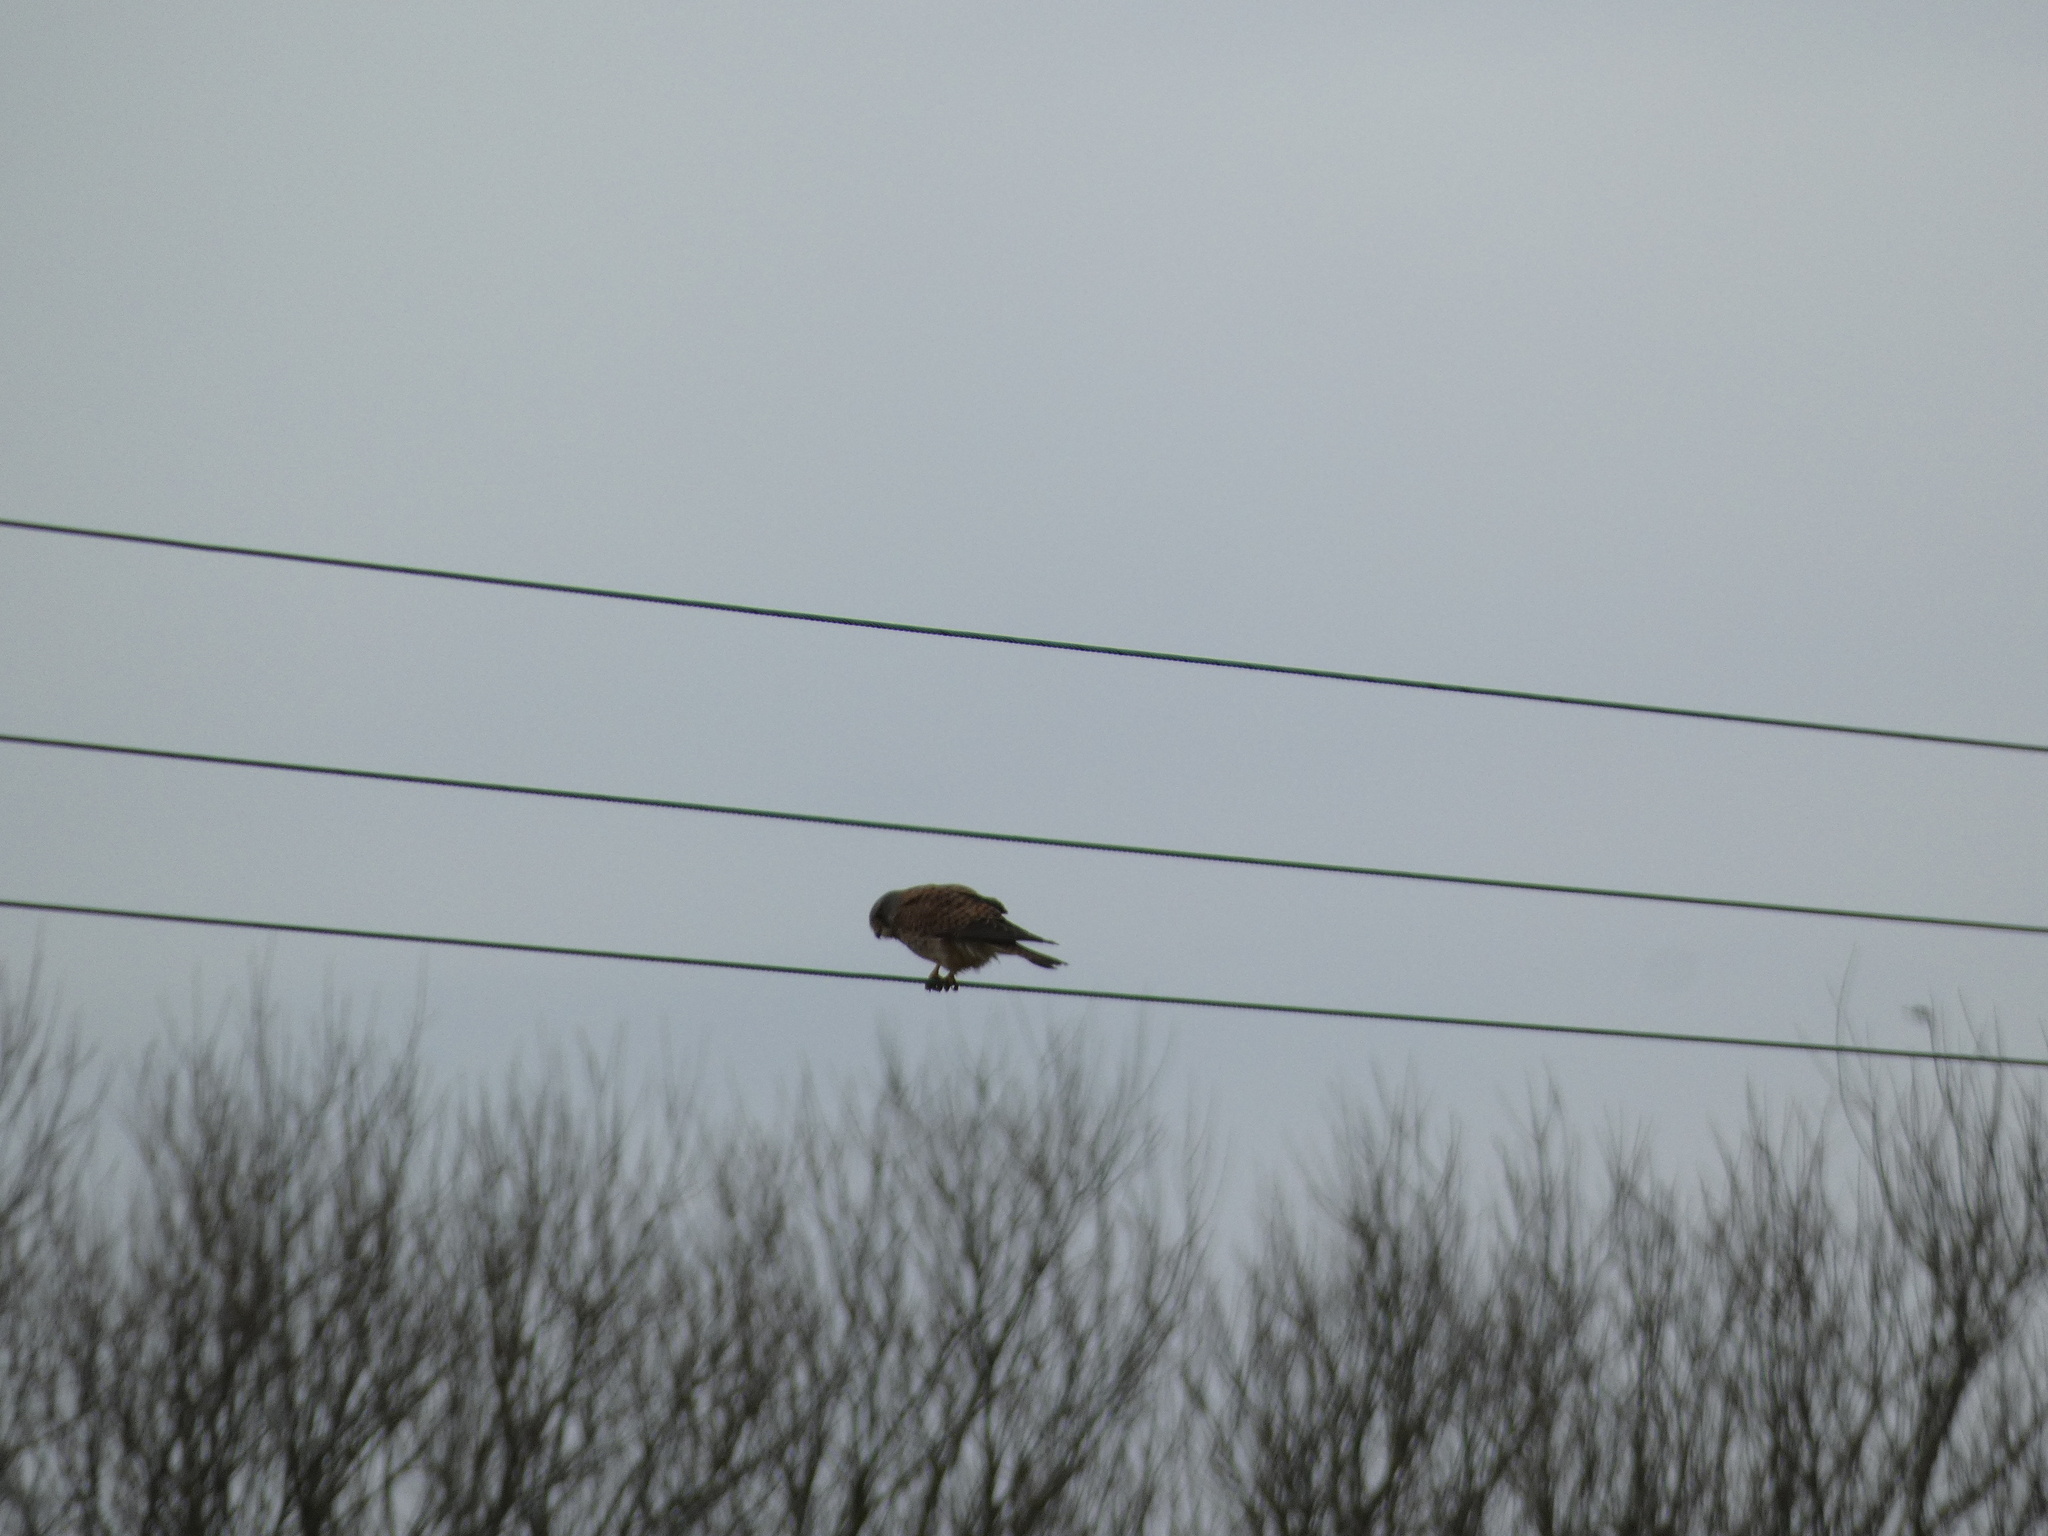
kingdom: Animalia
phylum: Chordata
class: Aves
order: Falconiformes
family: Falconidae
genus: Falco
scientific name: Falco tinnunculus
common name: Common kestrel
